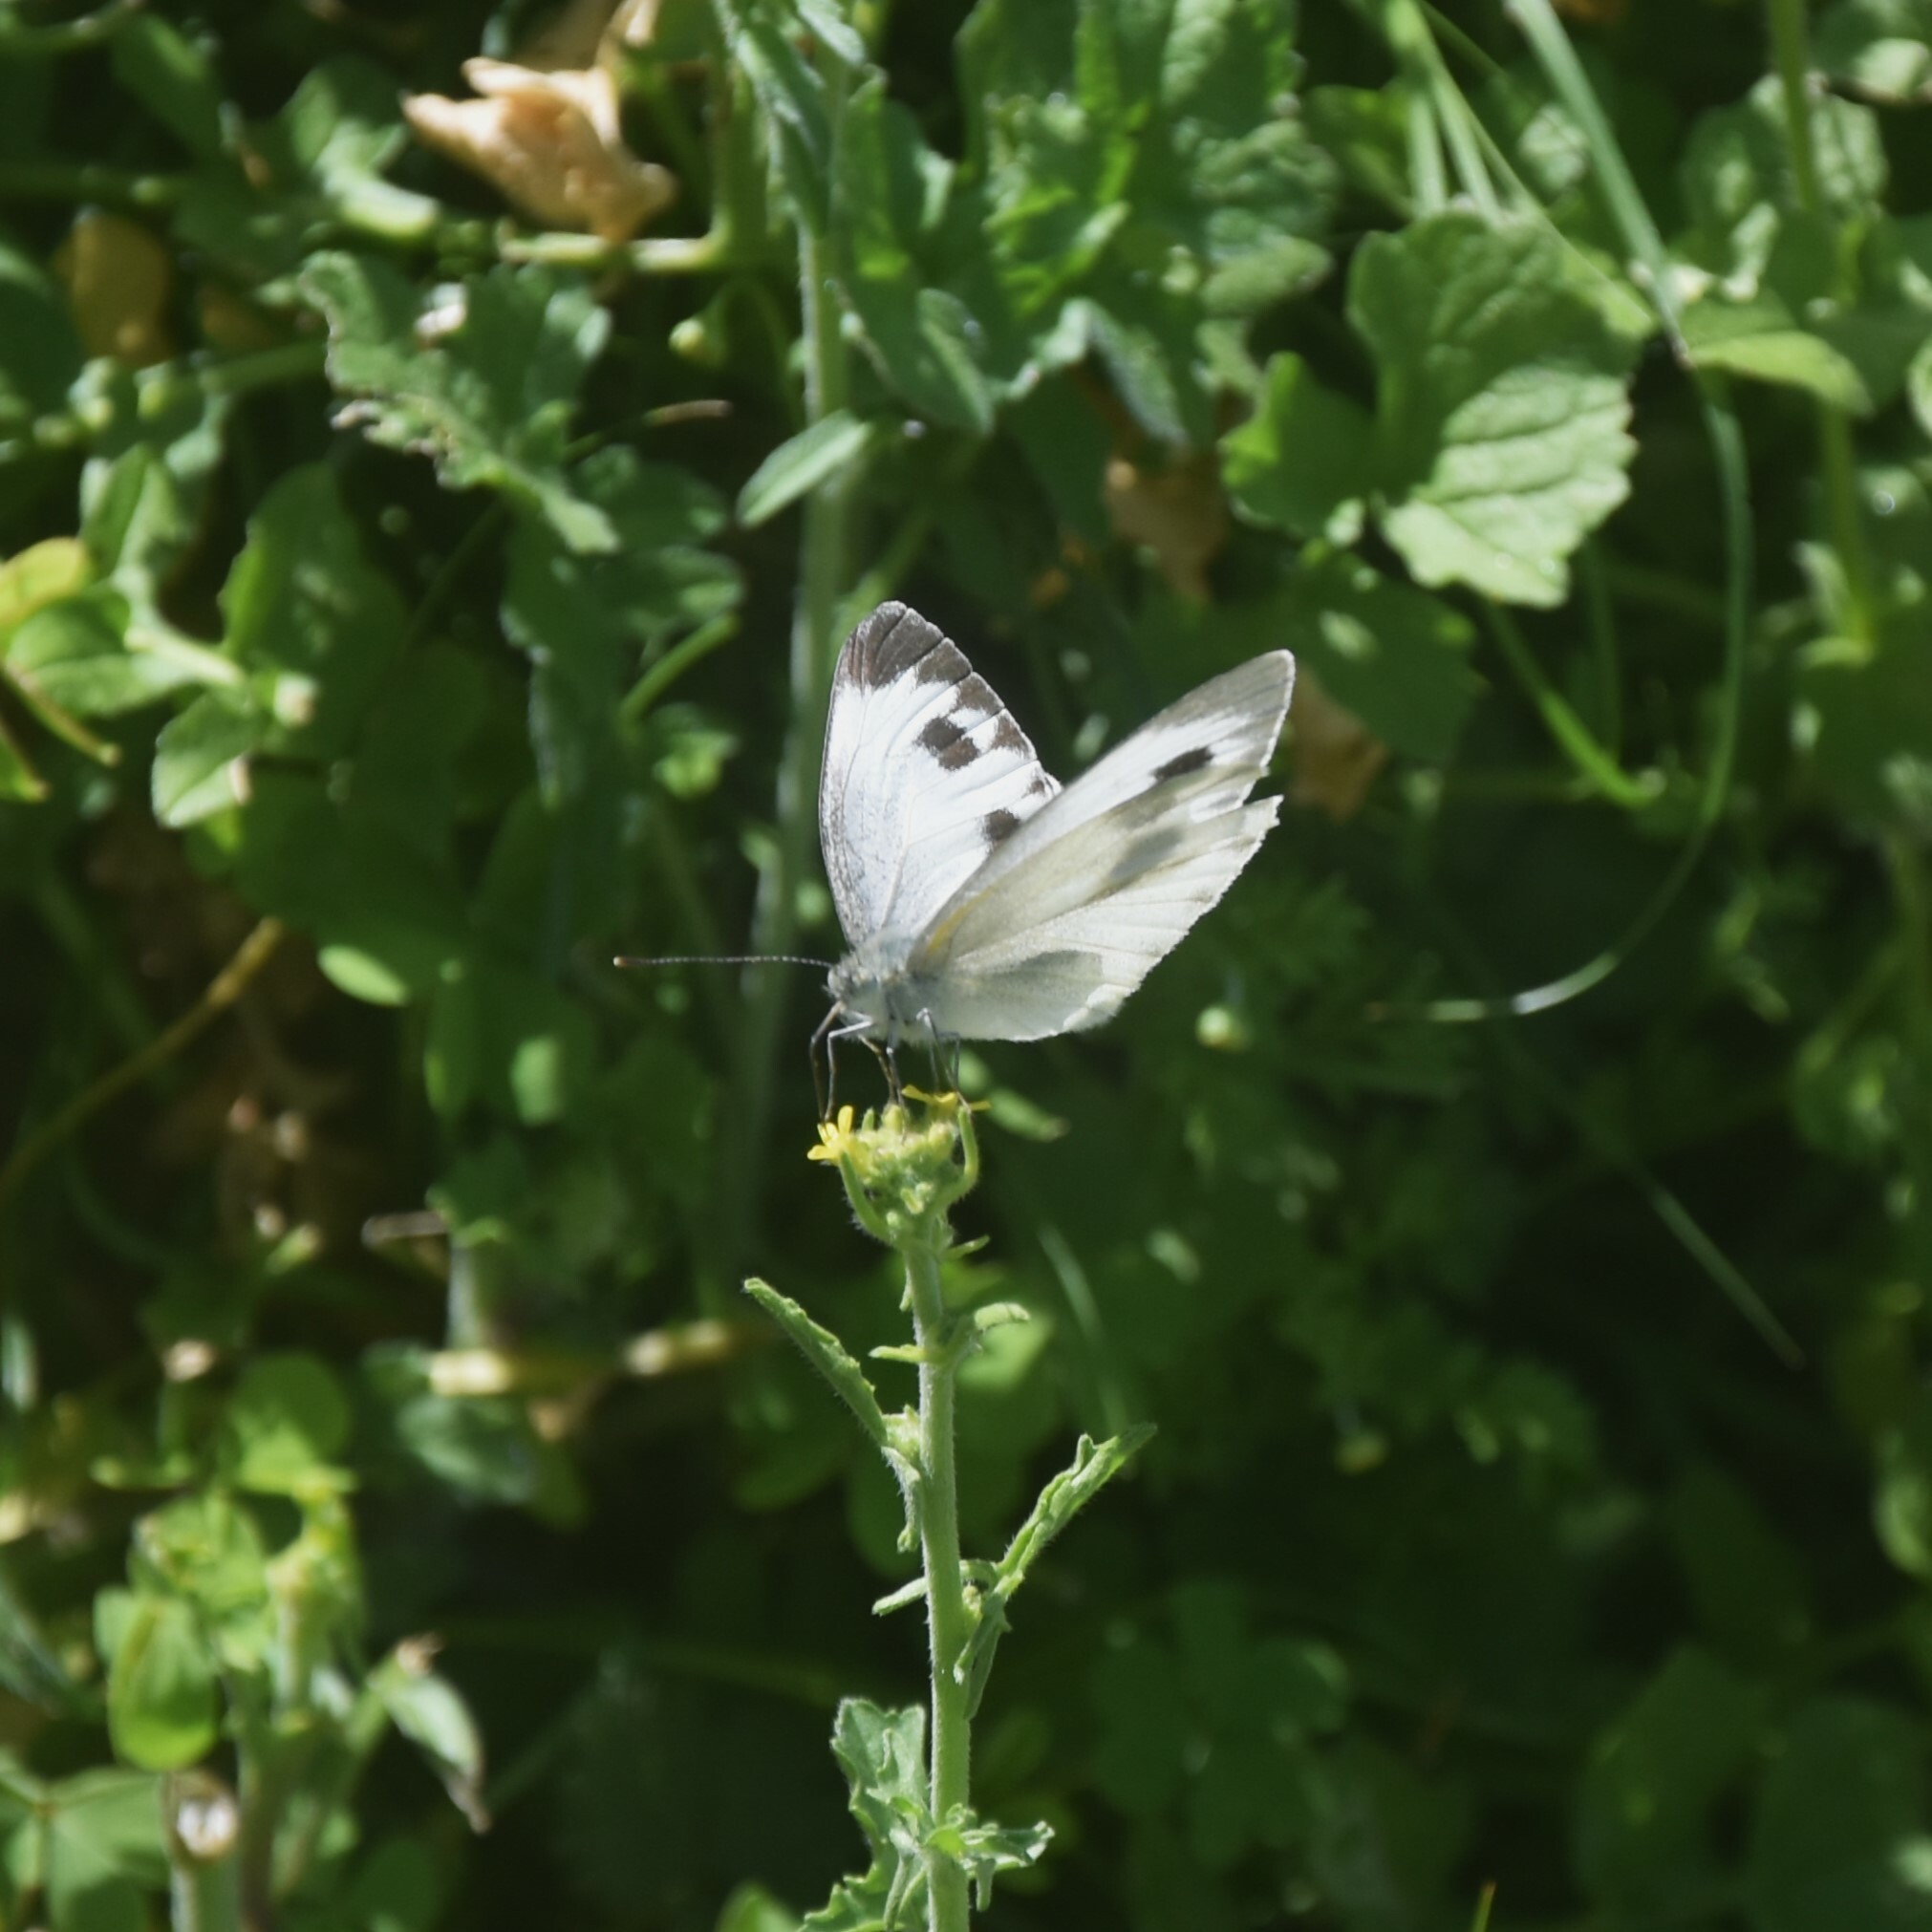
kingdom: Animalia
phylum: Arthropoda
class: Insecta
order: Lepidoptera
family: Pieridae
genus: Pieris
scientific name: Pieris canidia
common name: Indian cabbage white
